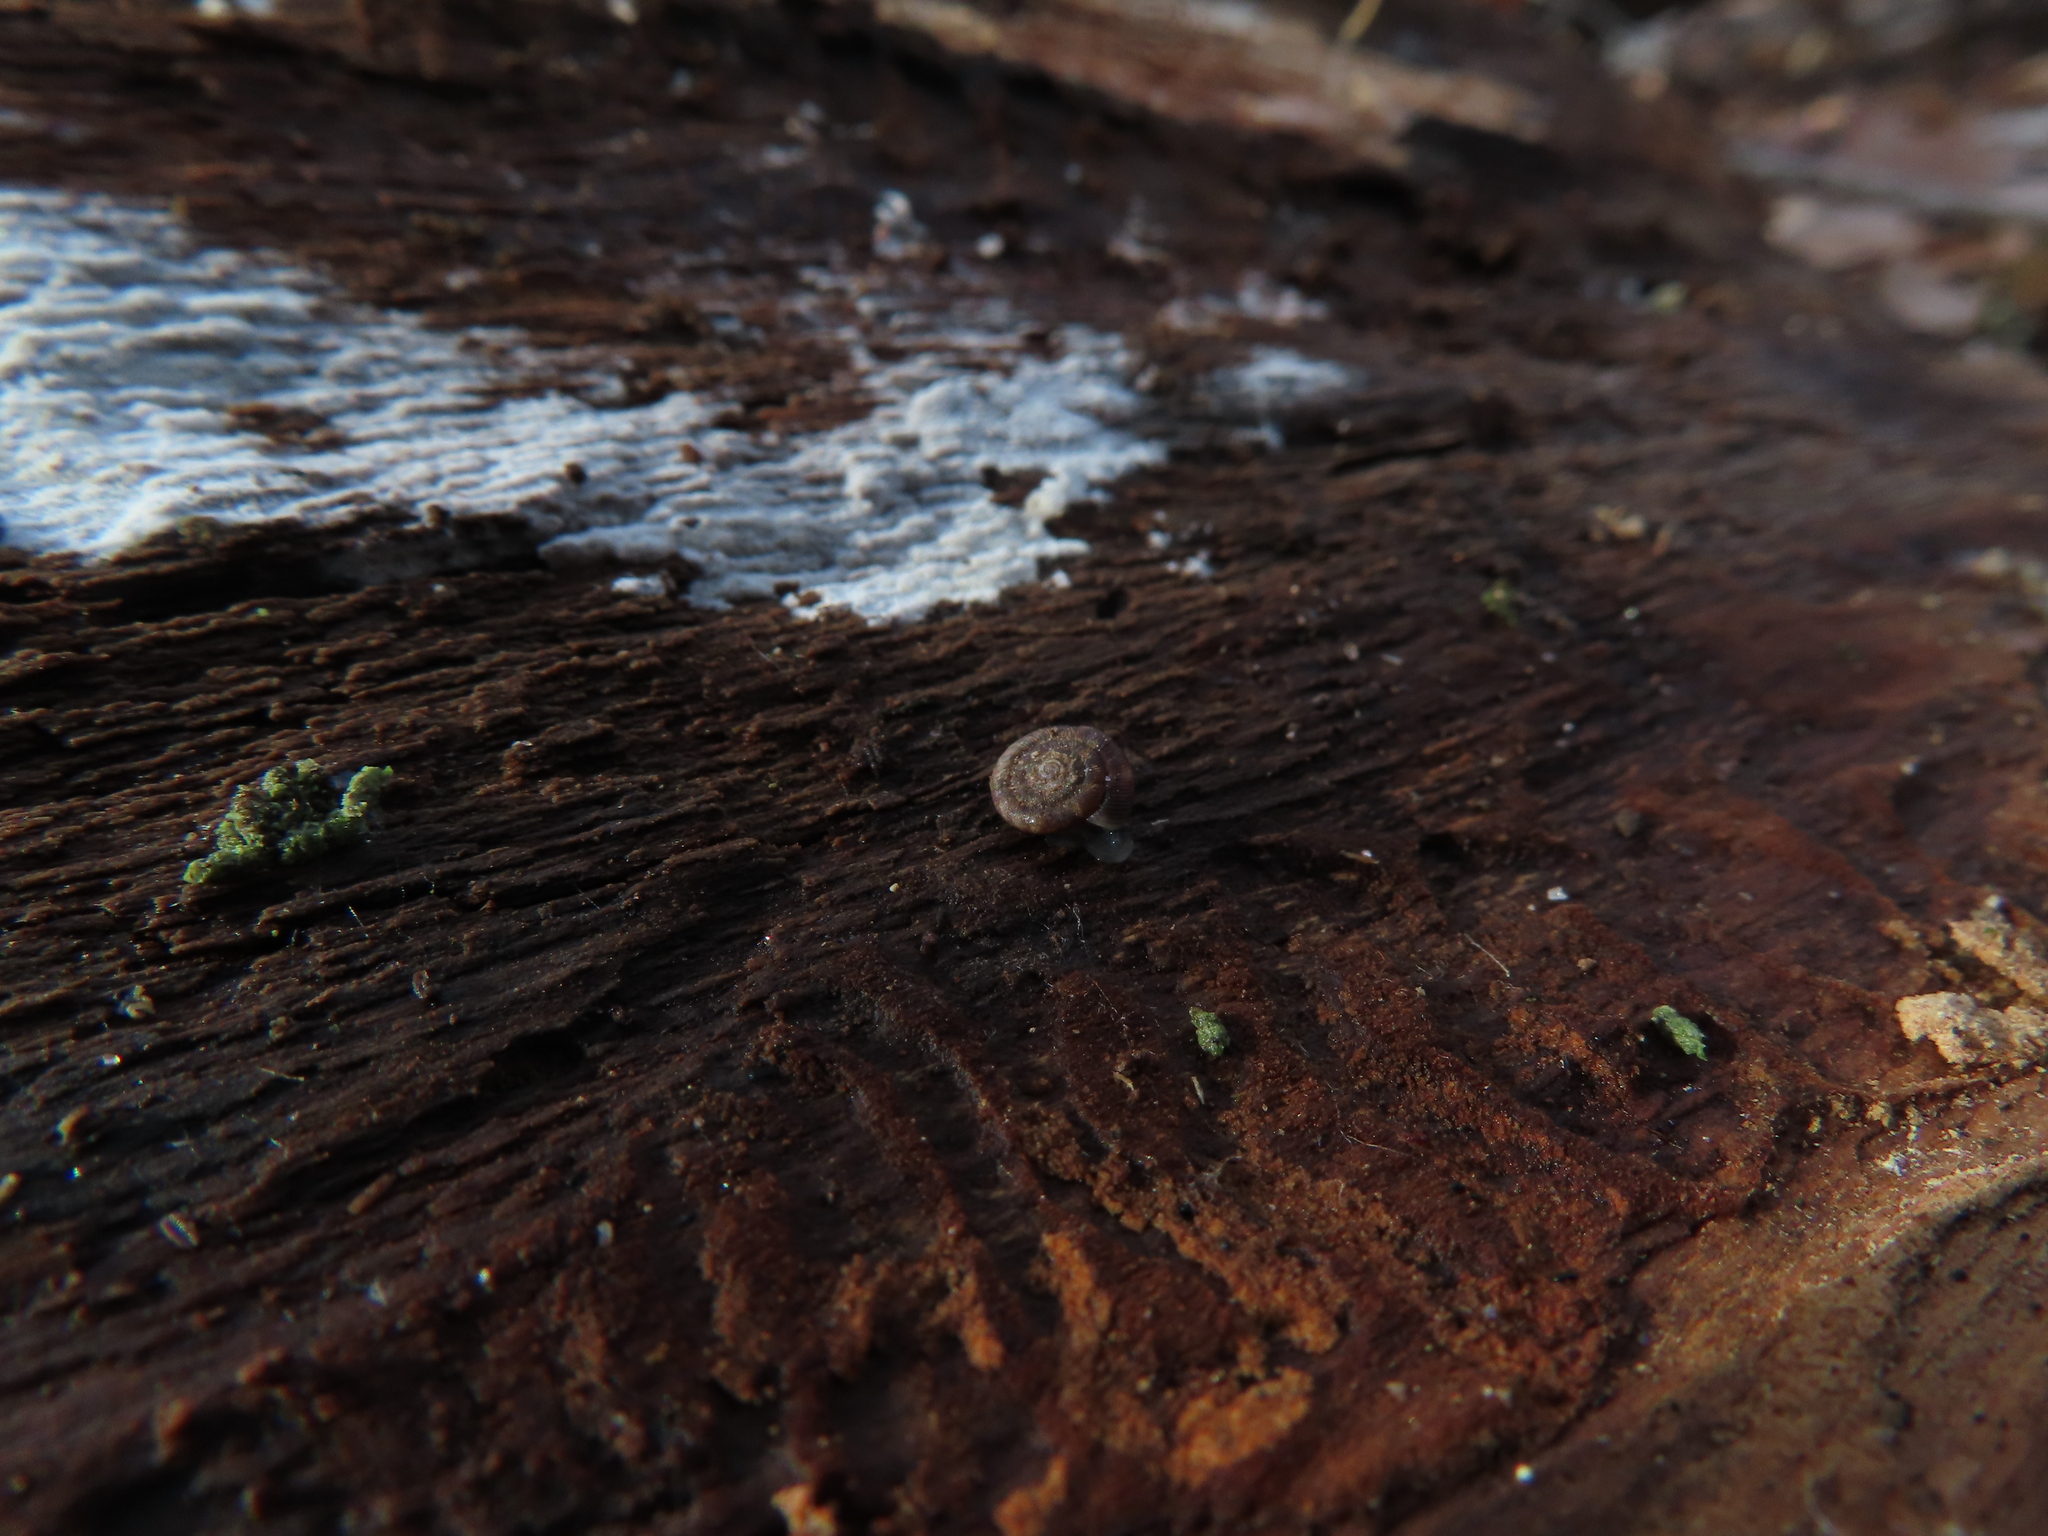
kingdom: Animalia
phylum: Mollusca
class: Gastropoda
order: Stylommatophora
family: Discidae
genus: Discus
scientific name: Discus rotundatus
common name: Rounded snail
